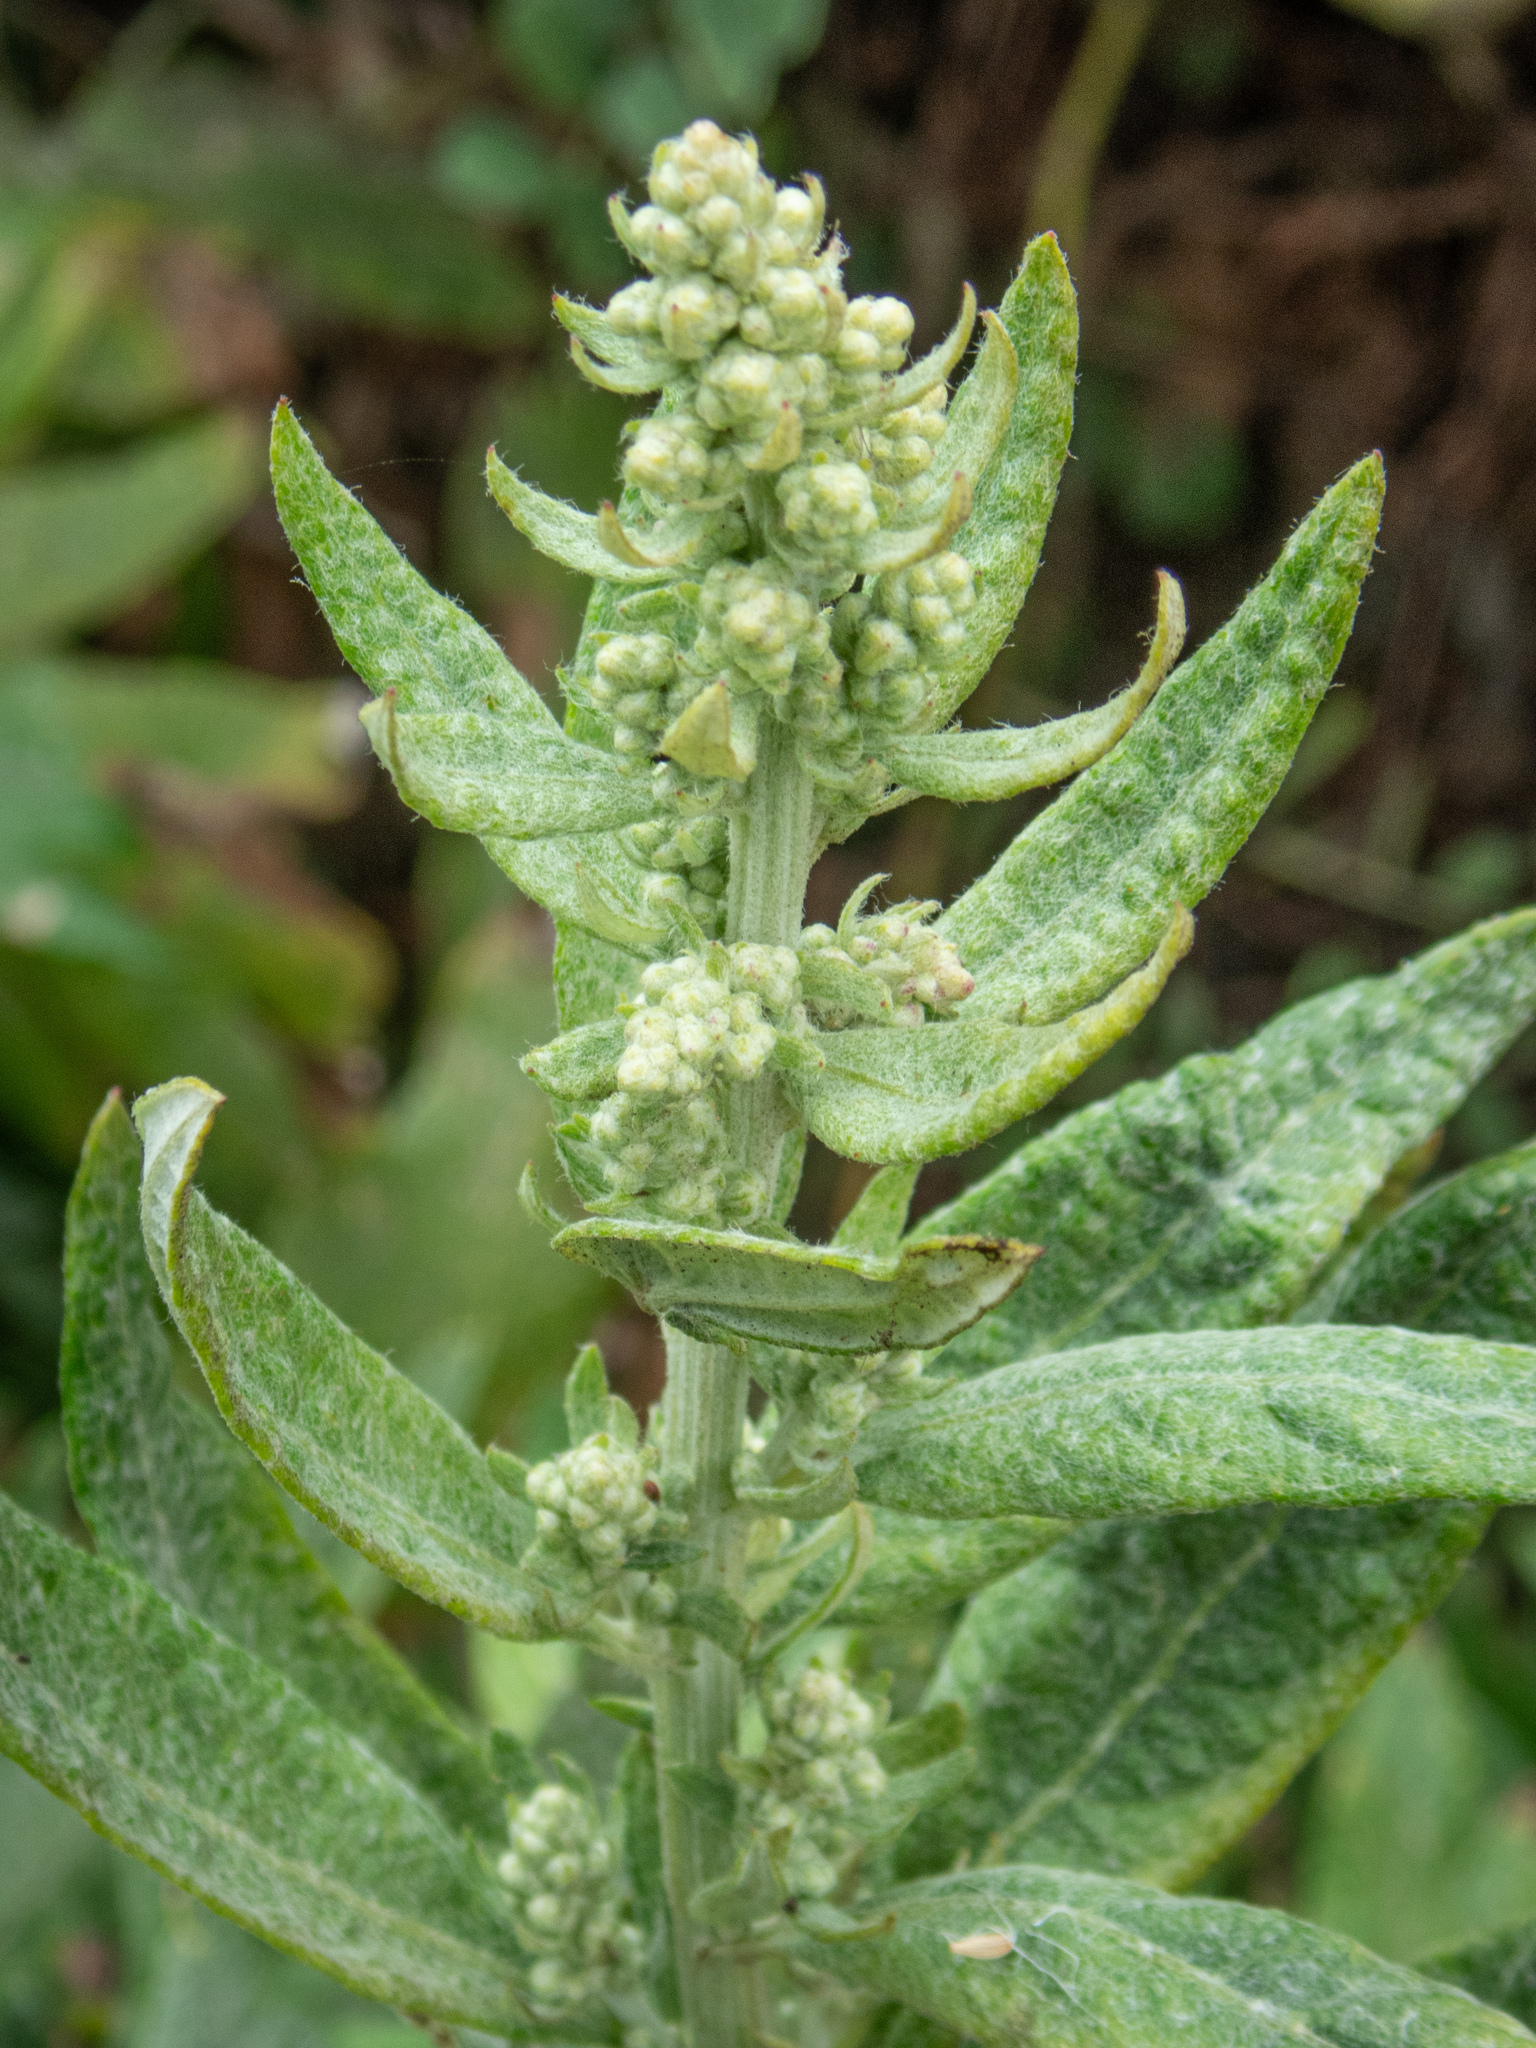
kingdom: Plantae
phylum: Tracheophyta
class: Magnoliopsida
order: Asterales
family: Asteraceae
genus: Artemisia
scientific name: Artemisia douglasiana
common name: Northwest mugwort
